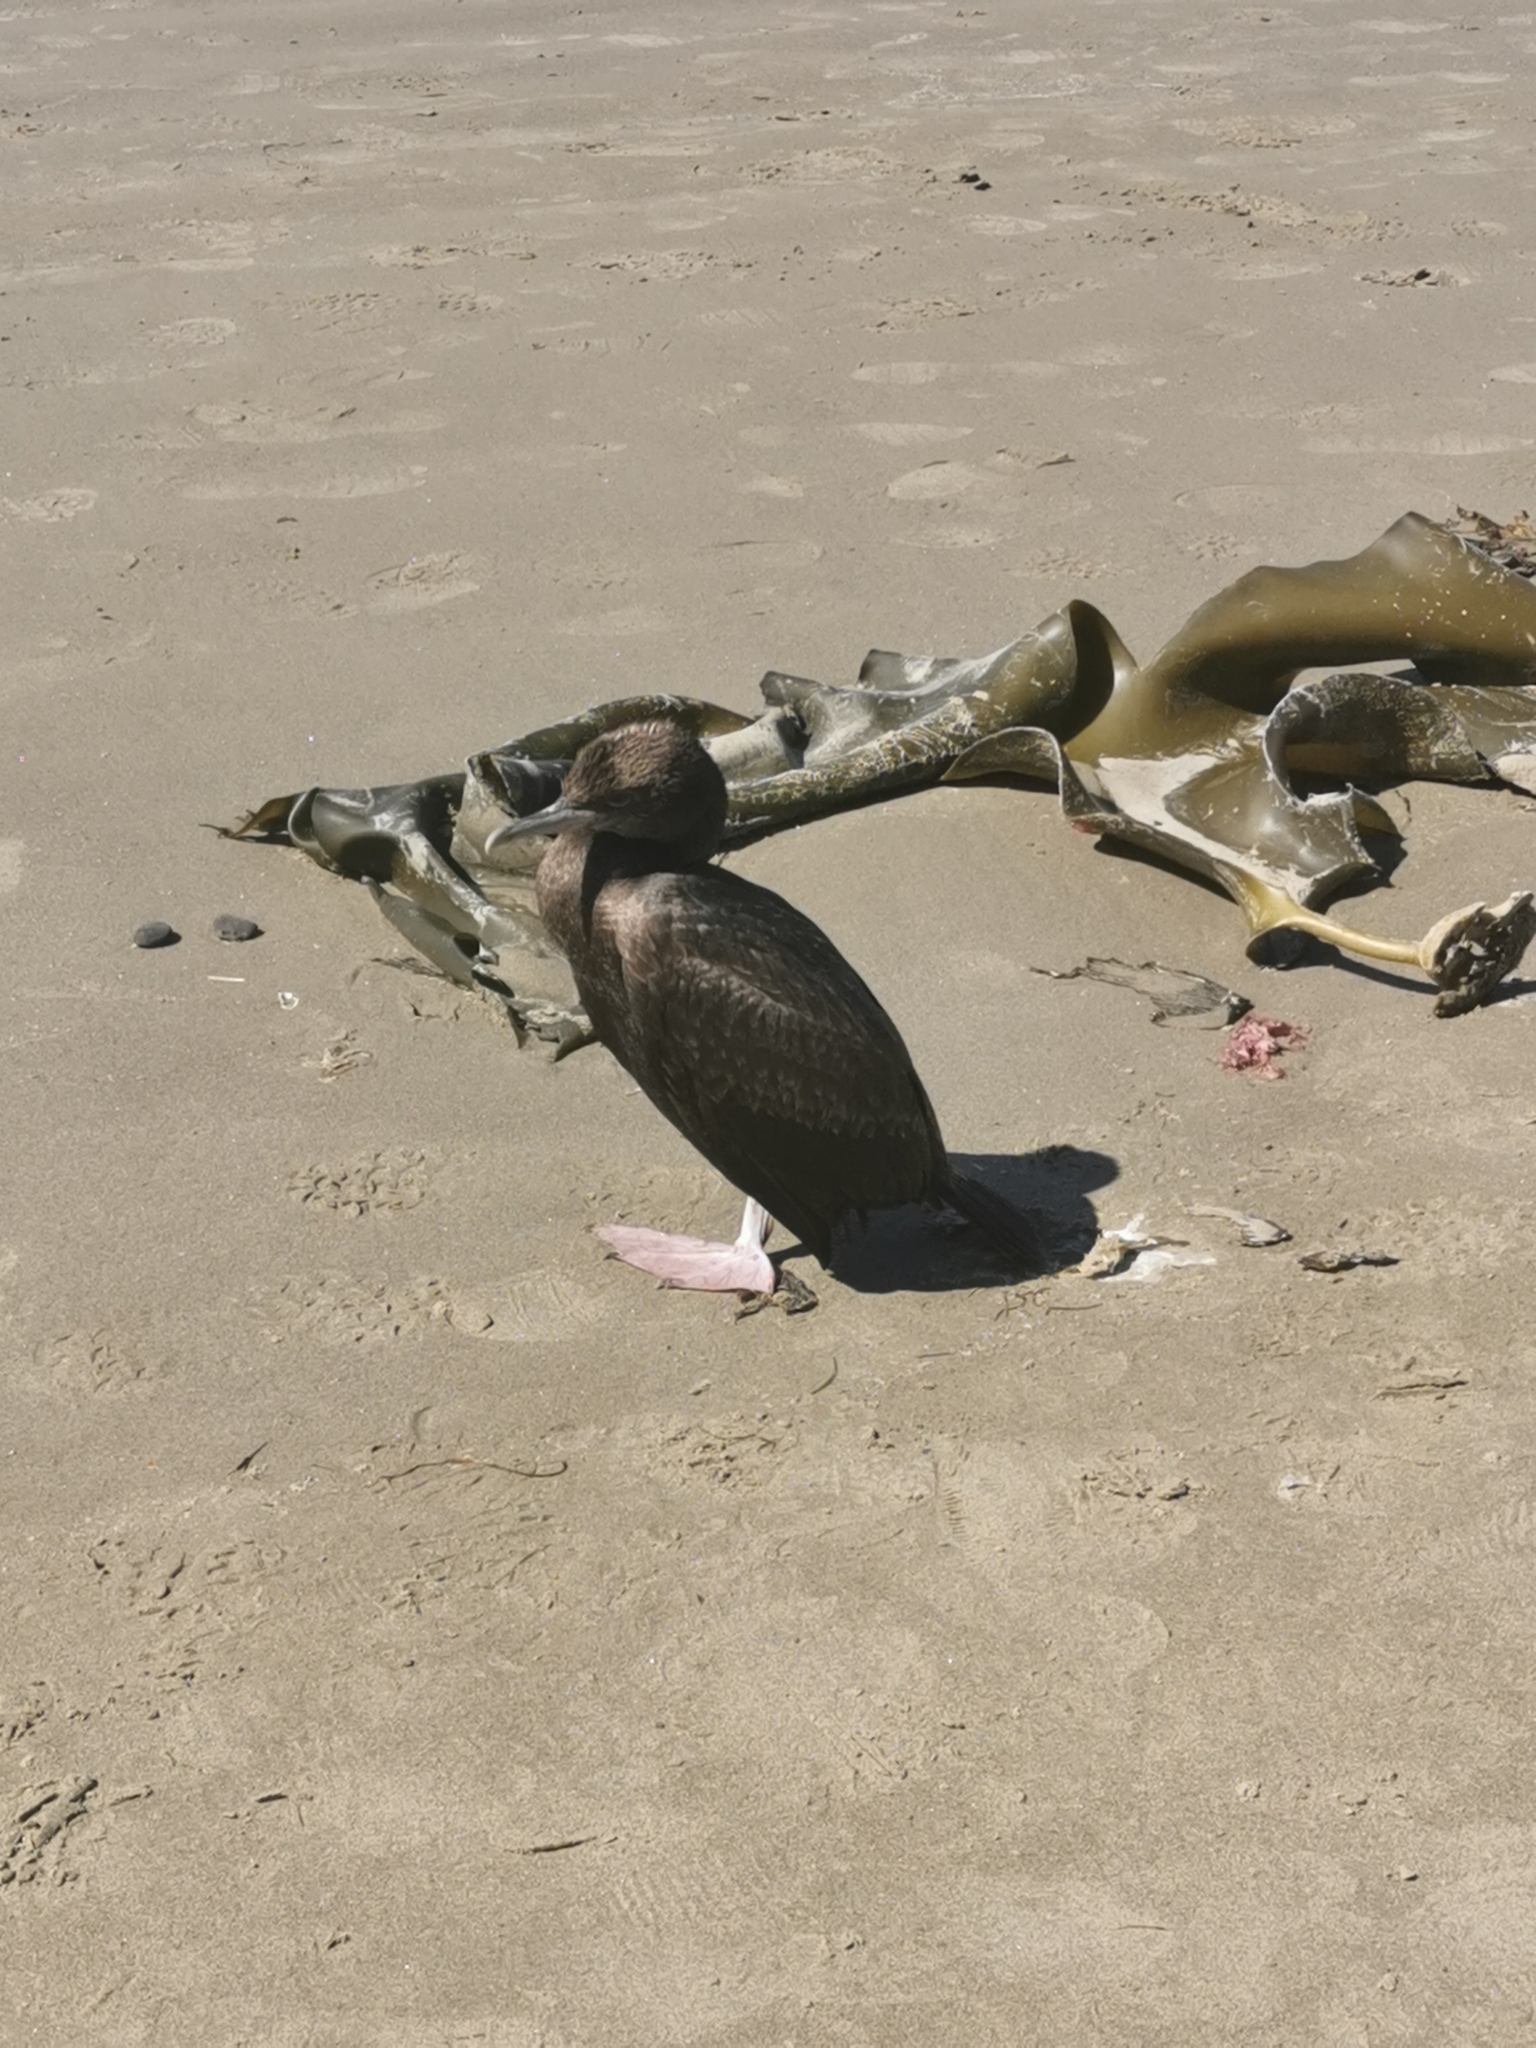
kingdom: Animalia
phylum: Chordata
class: Aves
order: Suliformes
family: Phalacrocoracidae
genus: Leucocarbo
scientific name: Leucocarbo chalconotus
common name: Stewart shag
